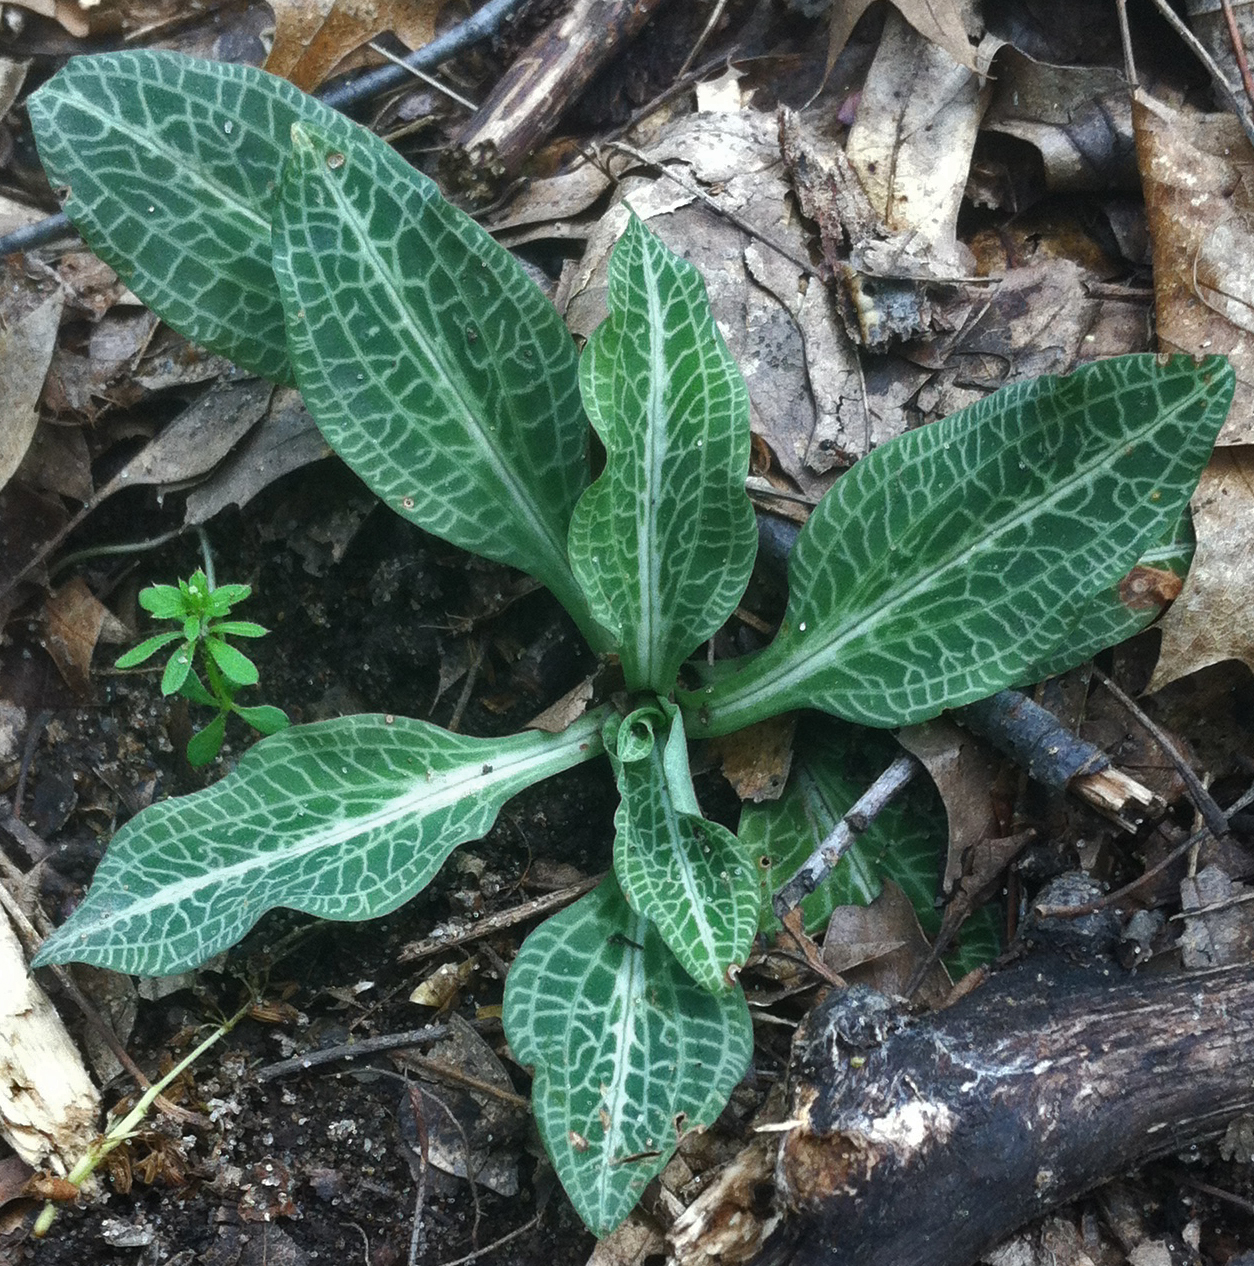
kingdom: Plantae
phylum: Tracheophyta
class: Liliopsida
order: Asparagales
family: Orchidaceae
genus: Goodyera
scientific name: Goodyera pubescens
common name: Downy rattlesnake-plantain
